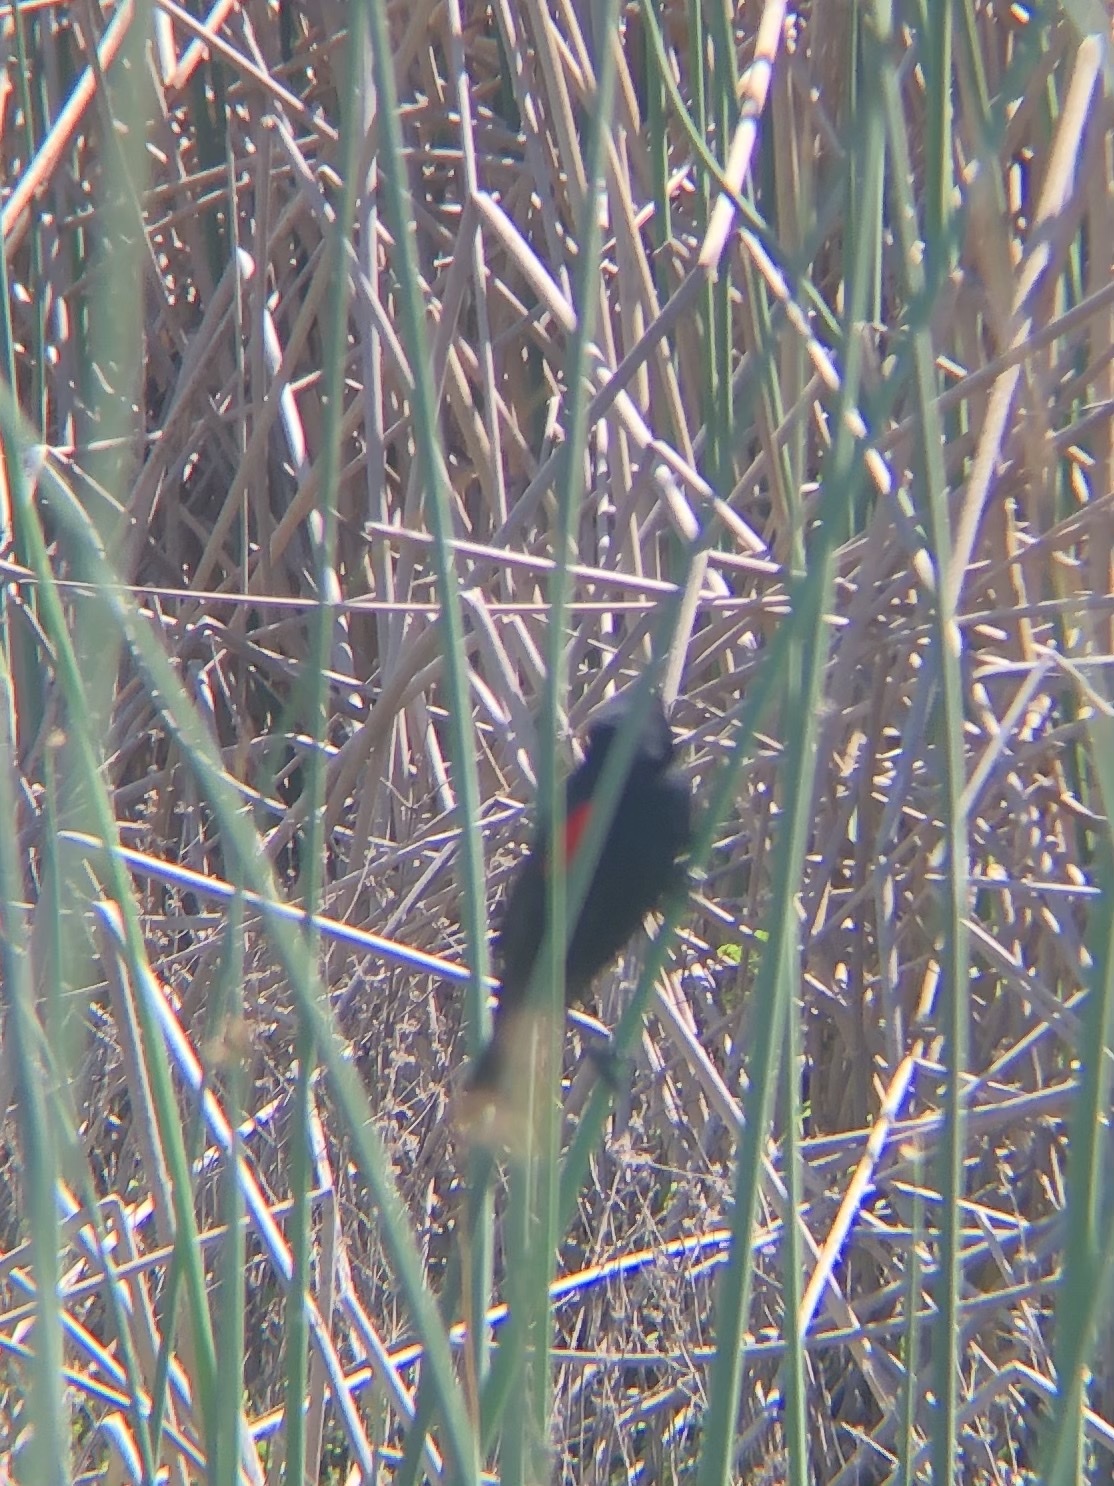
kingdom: Animalia
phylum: Chordata
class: Aves
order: Passeriformes
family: Icteridae
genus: Agelaius
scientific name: Agelaius phoeniceus
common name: Red-winged blackbird
